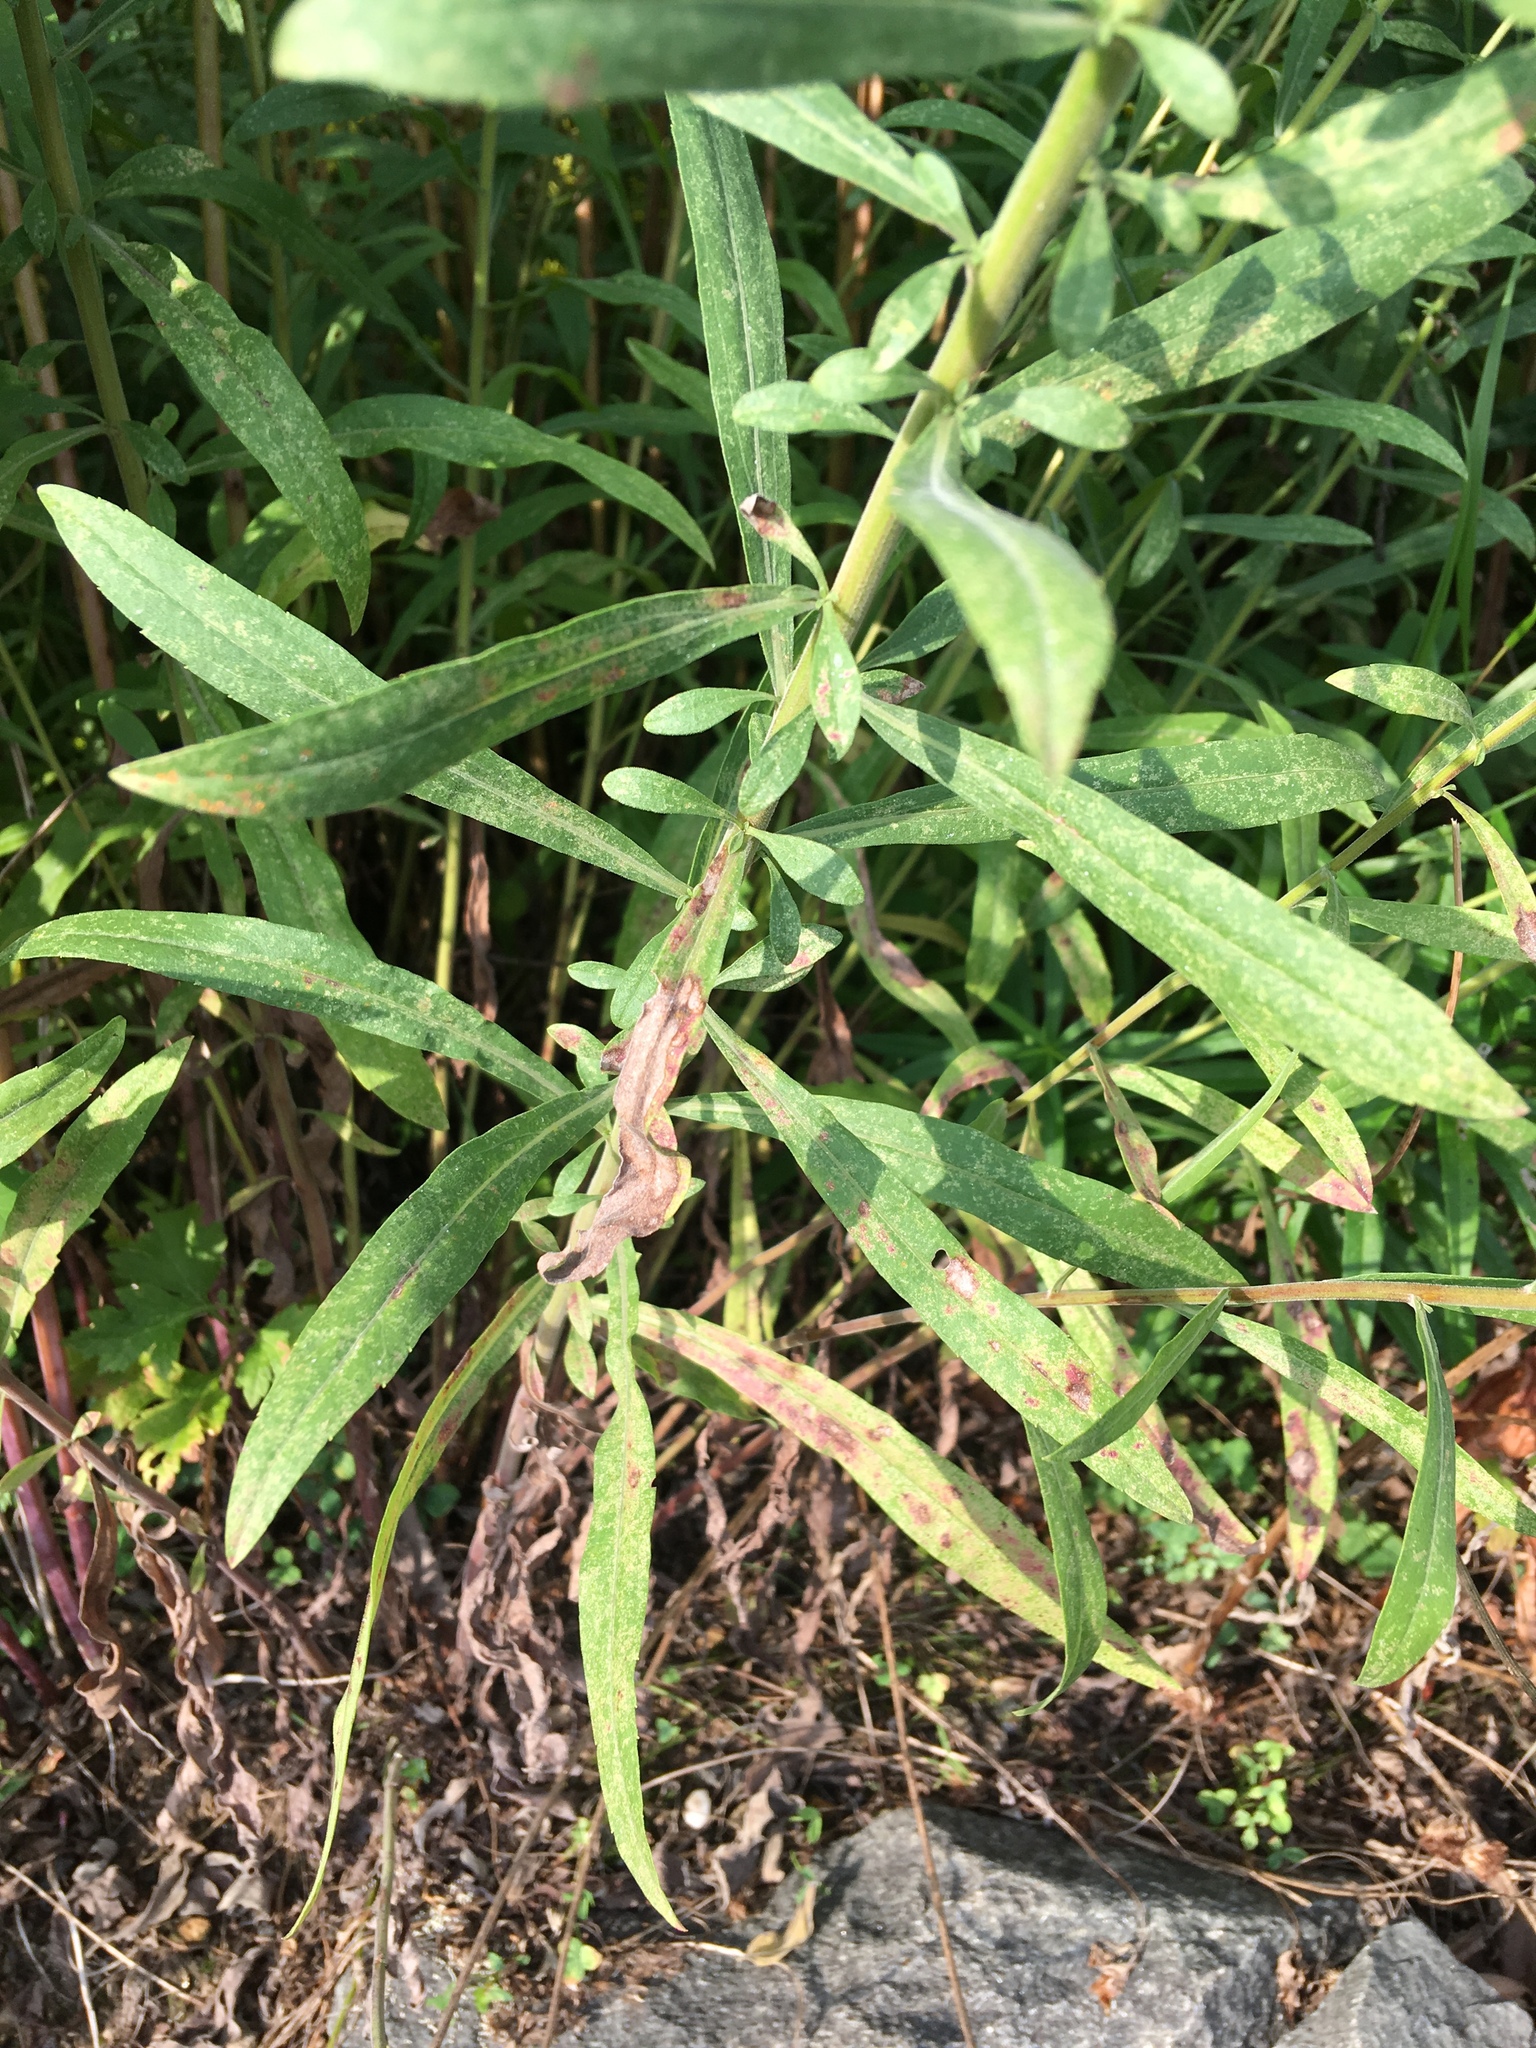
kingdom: Plantae
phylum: Tracheophyta
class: Magnoliopsida
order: Asterales
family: Asteraceae
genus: Solidago
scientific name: Solidago nemoralis
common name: Grey goldenrod
